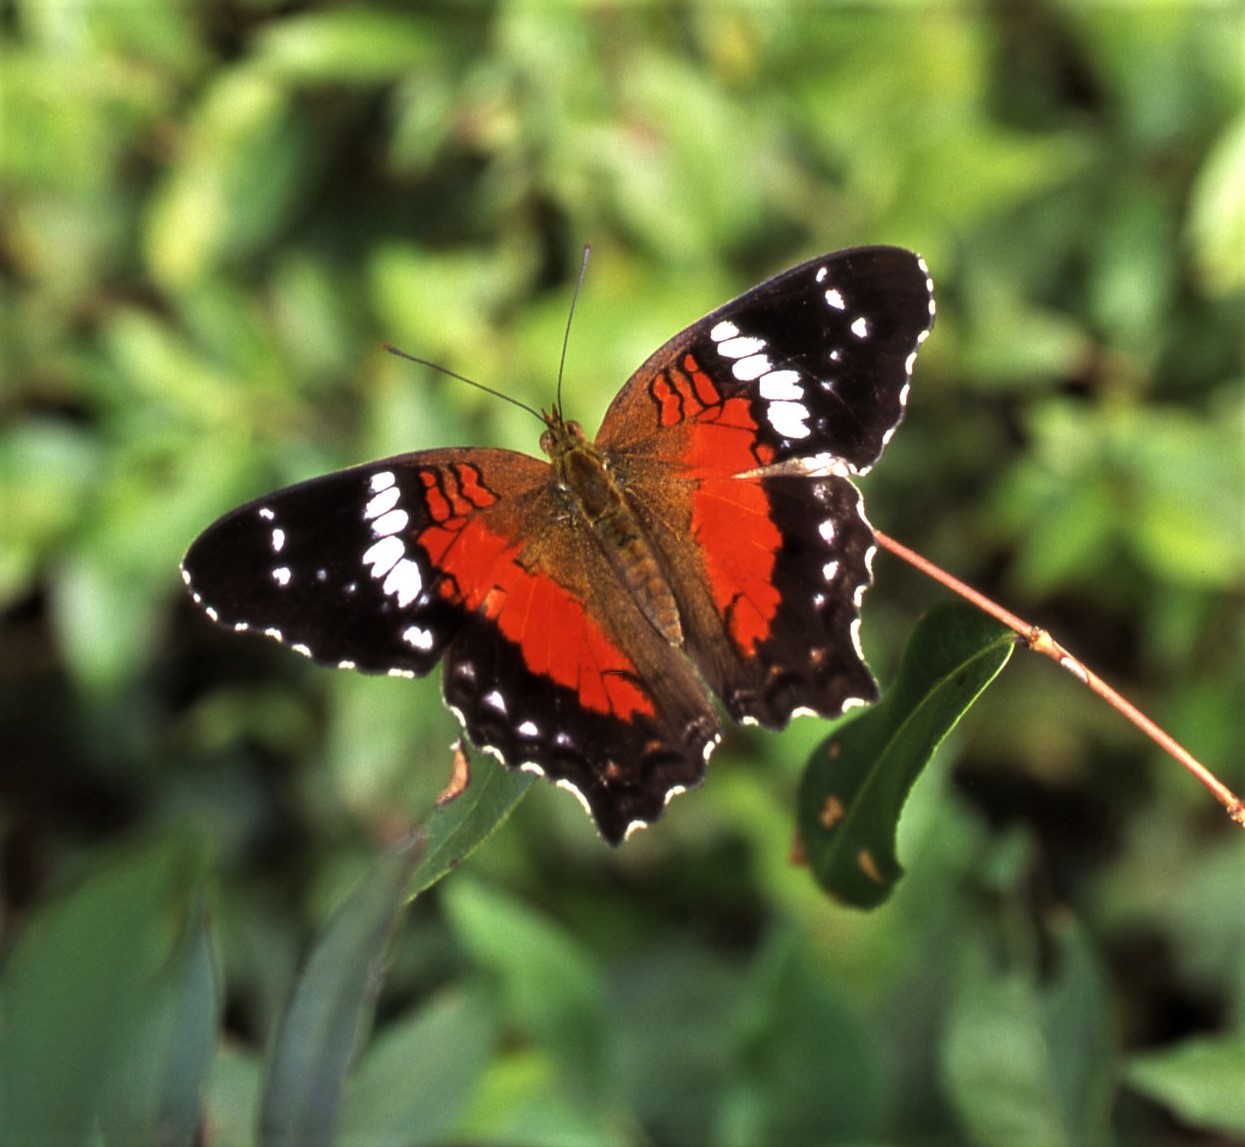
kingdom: Animalia
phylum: Arthropoda
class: Insecta
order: Lepidoptera
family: Nymphalidae
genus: Anartia
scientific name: Anartia amathea
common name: Red peacock
